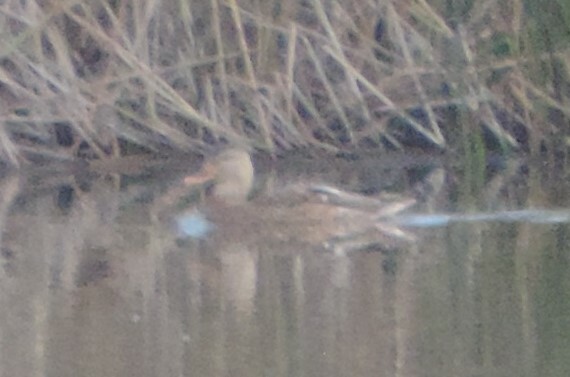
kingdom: Animalia
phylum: Chordata
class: Aves
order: Anseriformes
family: Anatidae
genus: Anas
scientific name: Anas platyrhynchos
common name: Mallard
